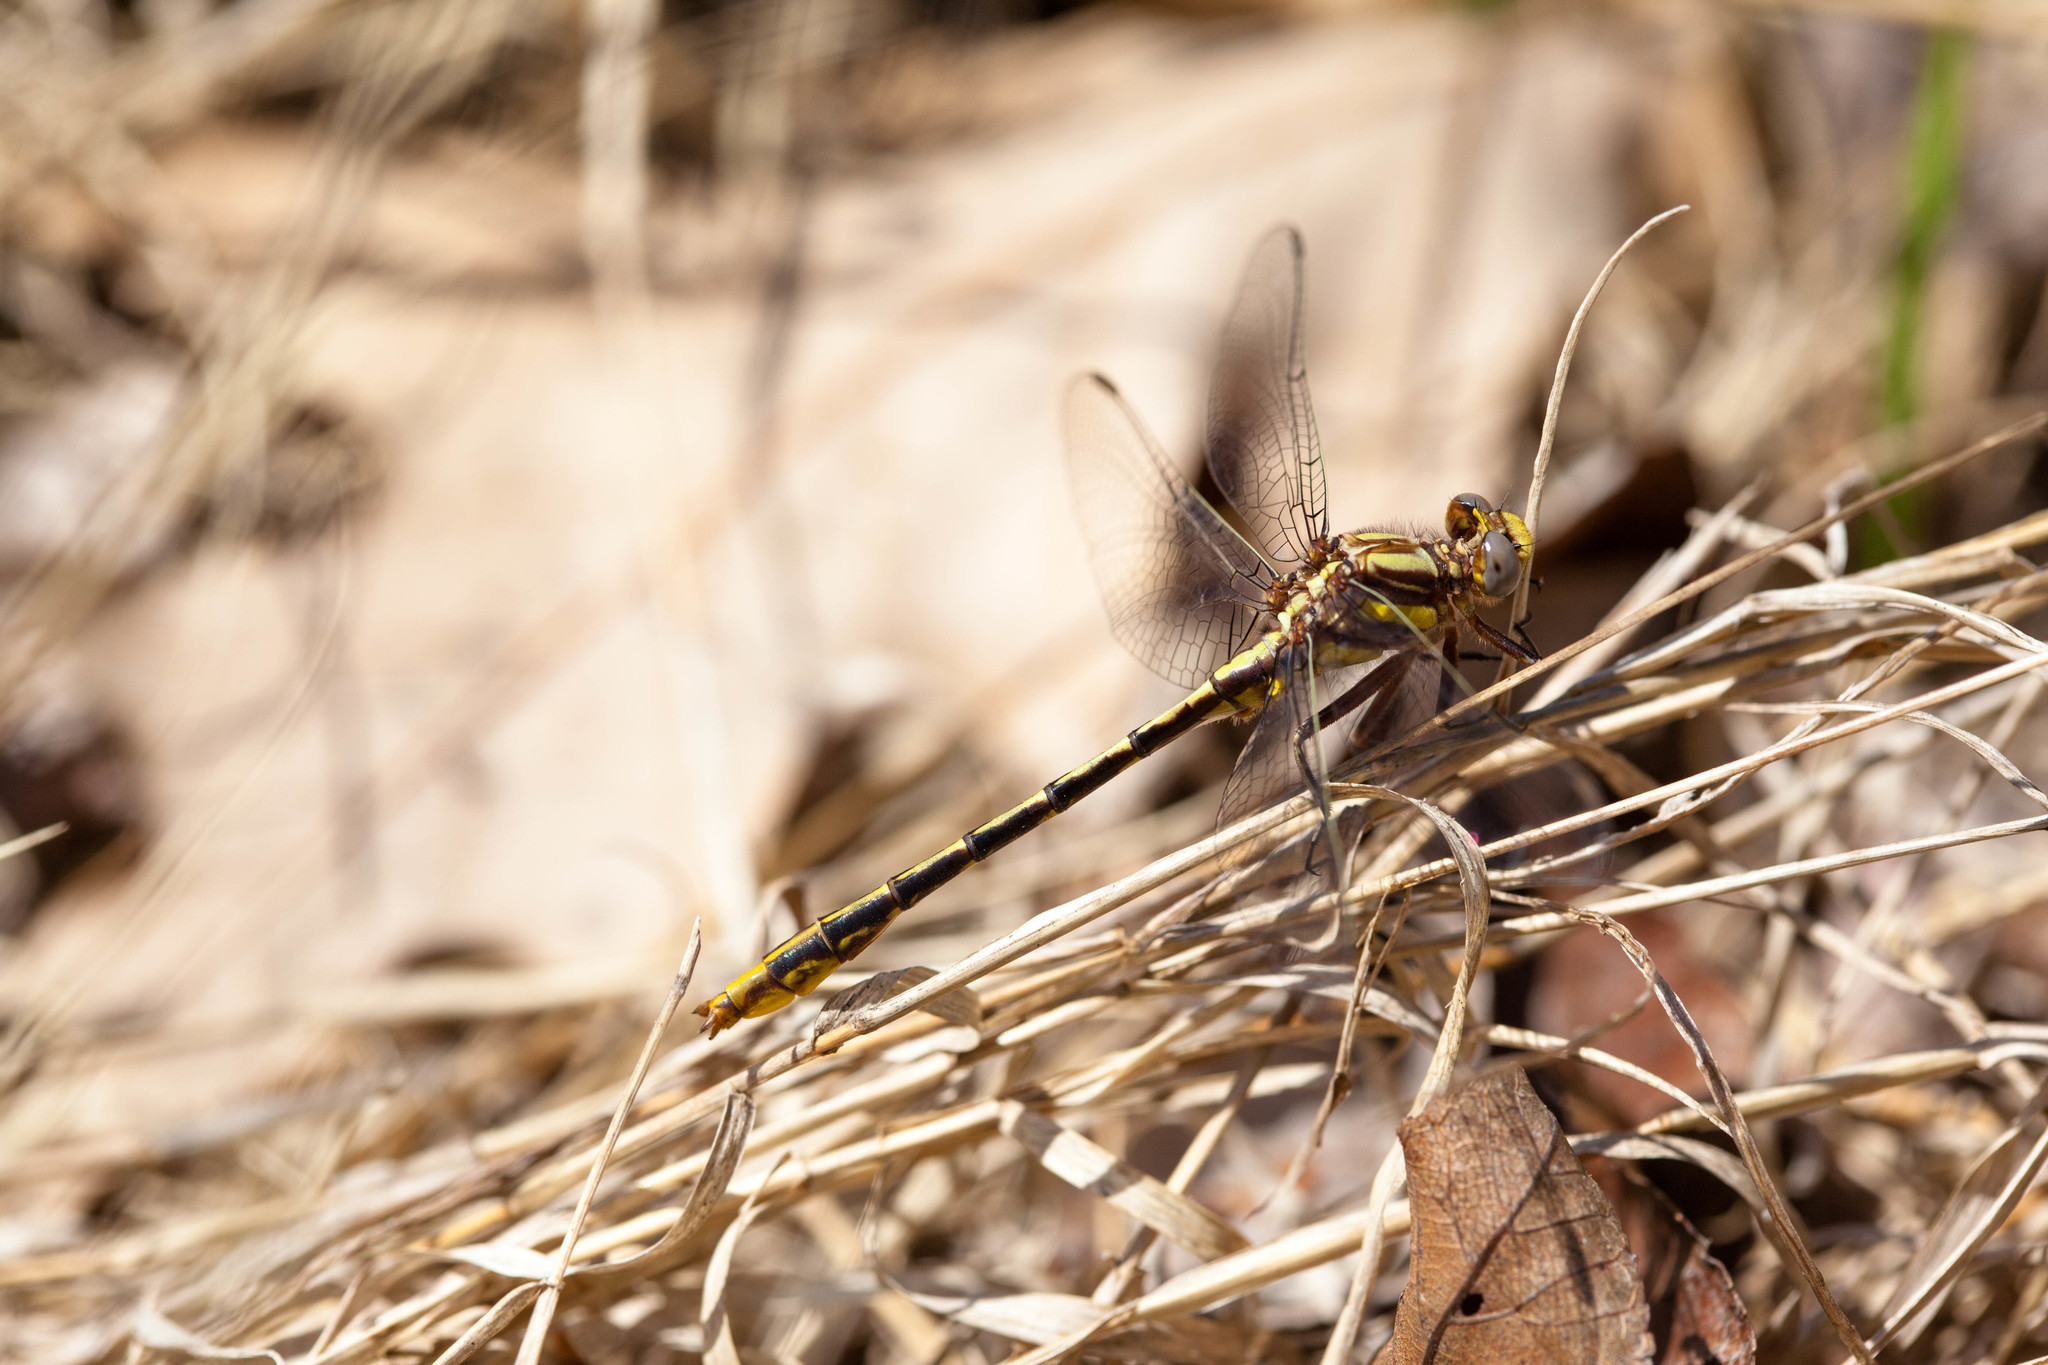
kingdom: Animalia
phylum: Arthropoda
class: Insecta
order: Odonata
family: Gomphidae
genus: Phanogomphus
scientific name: Phanogomphus exilis
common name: Lancet clubtail
